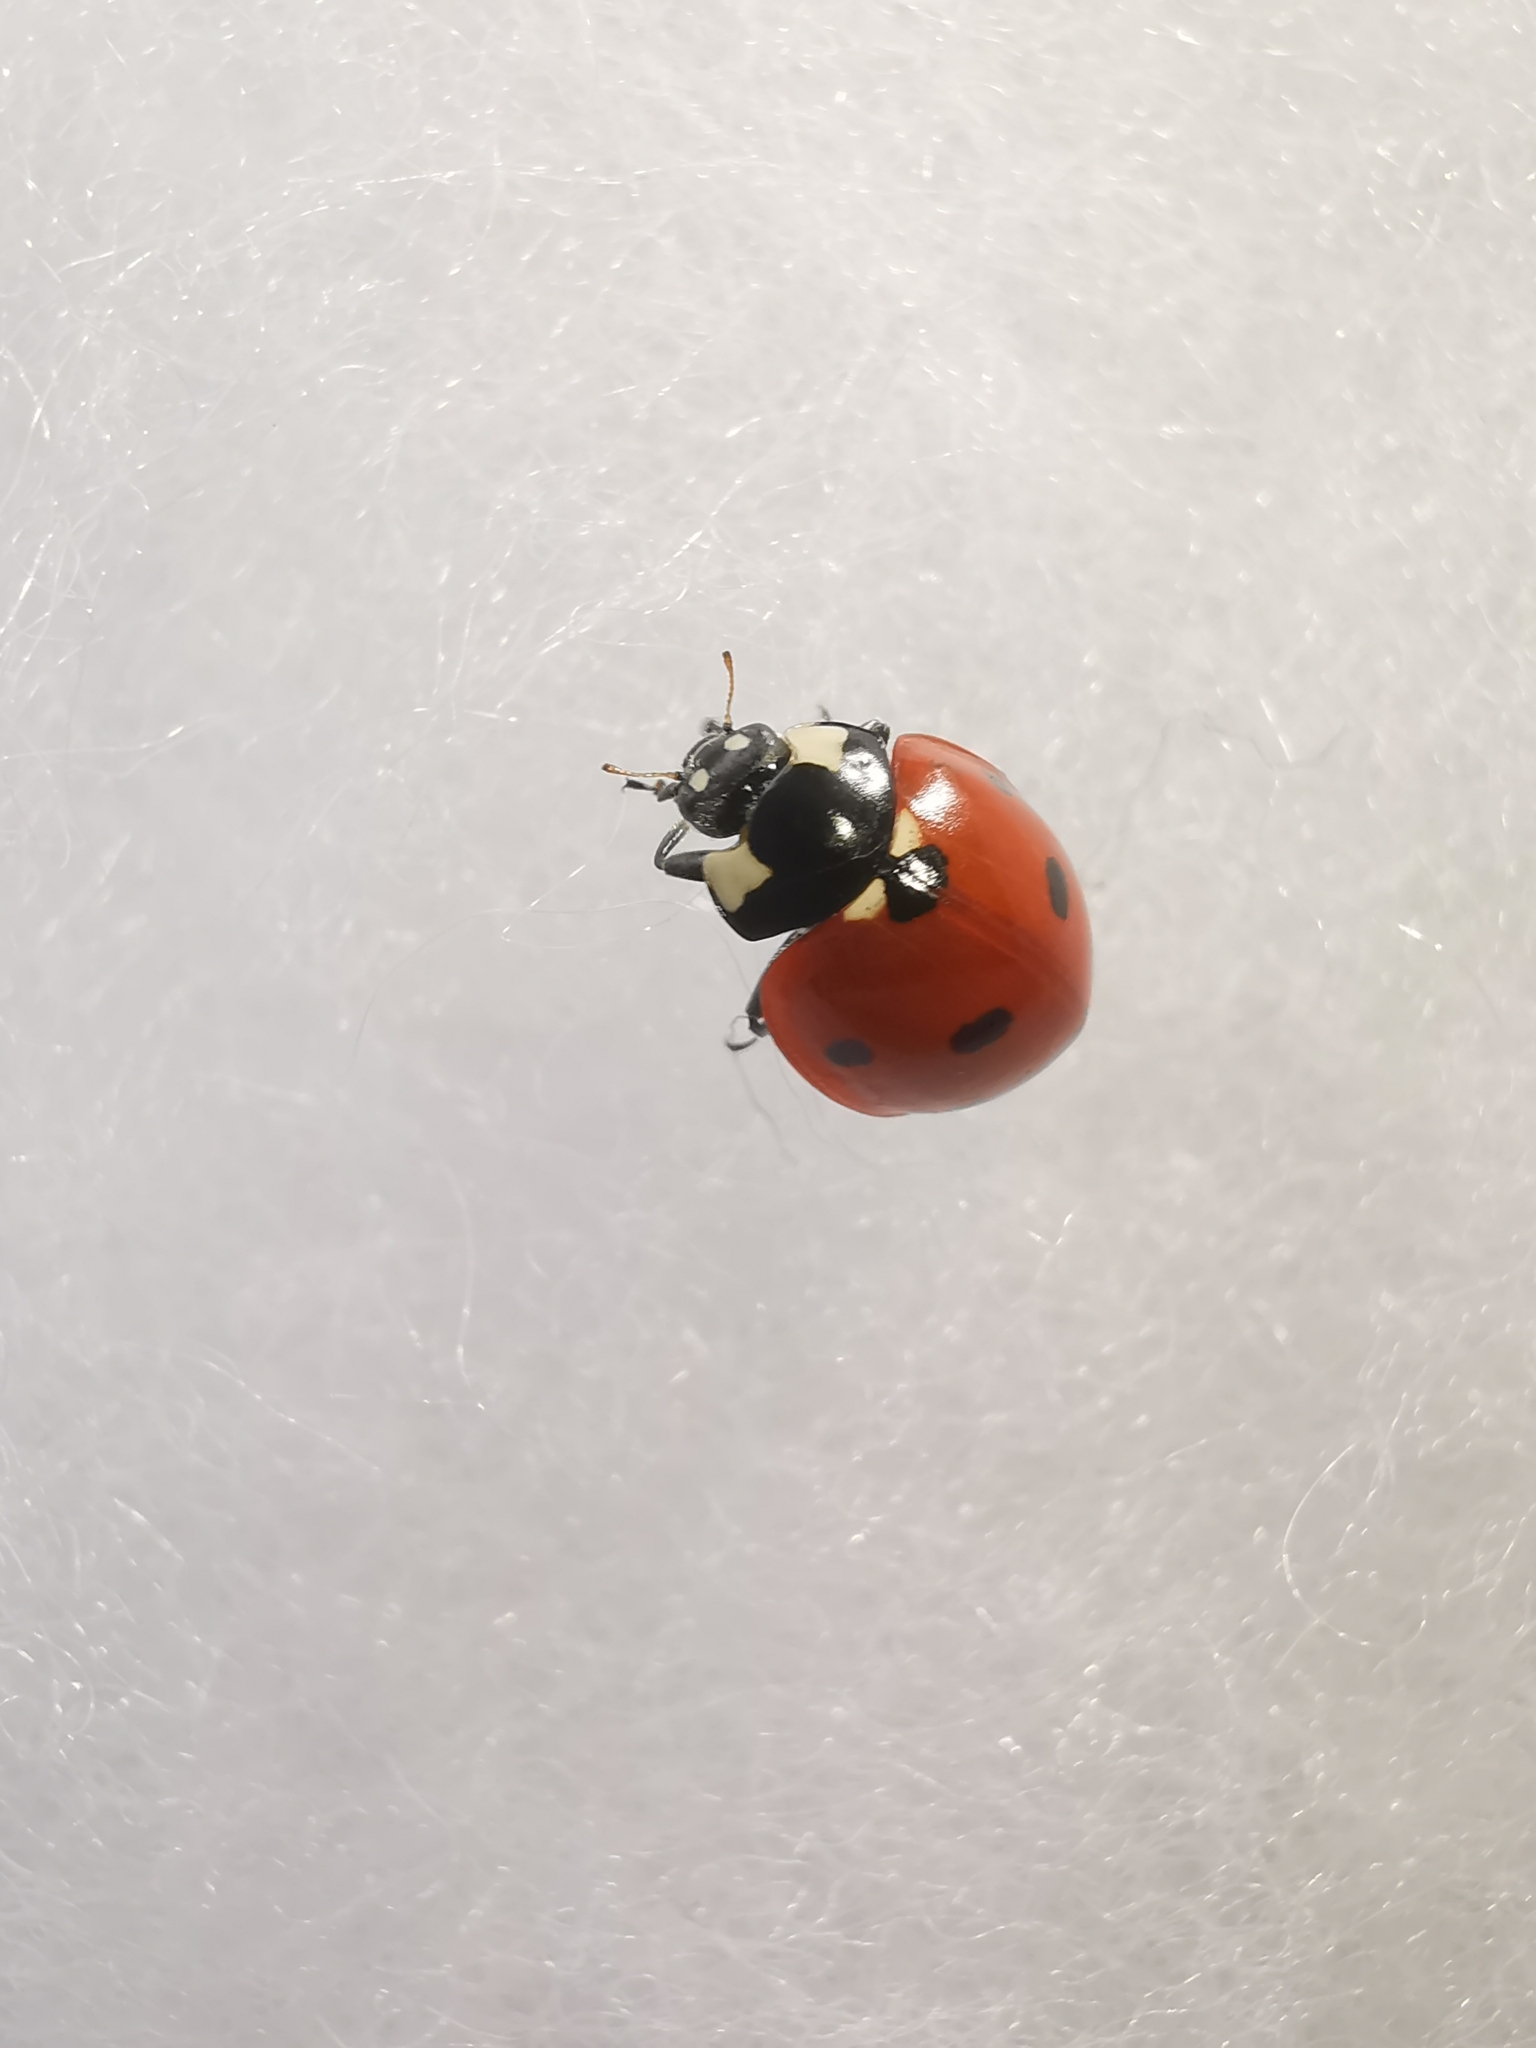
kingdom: Animalia
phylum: Arthropoda
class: Insecta
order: Coleoptera
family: Coccinellidae
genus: Coccinella
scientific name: Coccinella septempunctata
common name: Sevenspotted lady beetle
